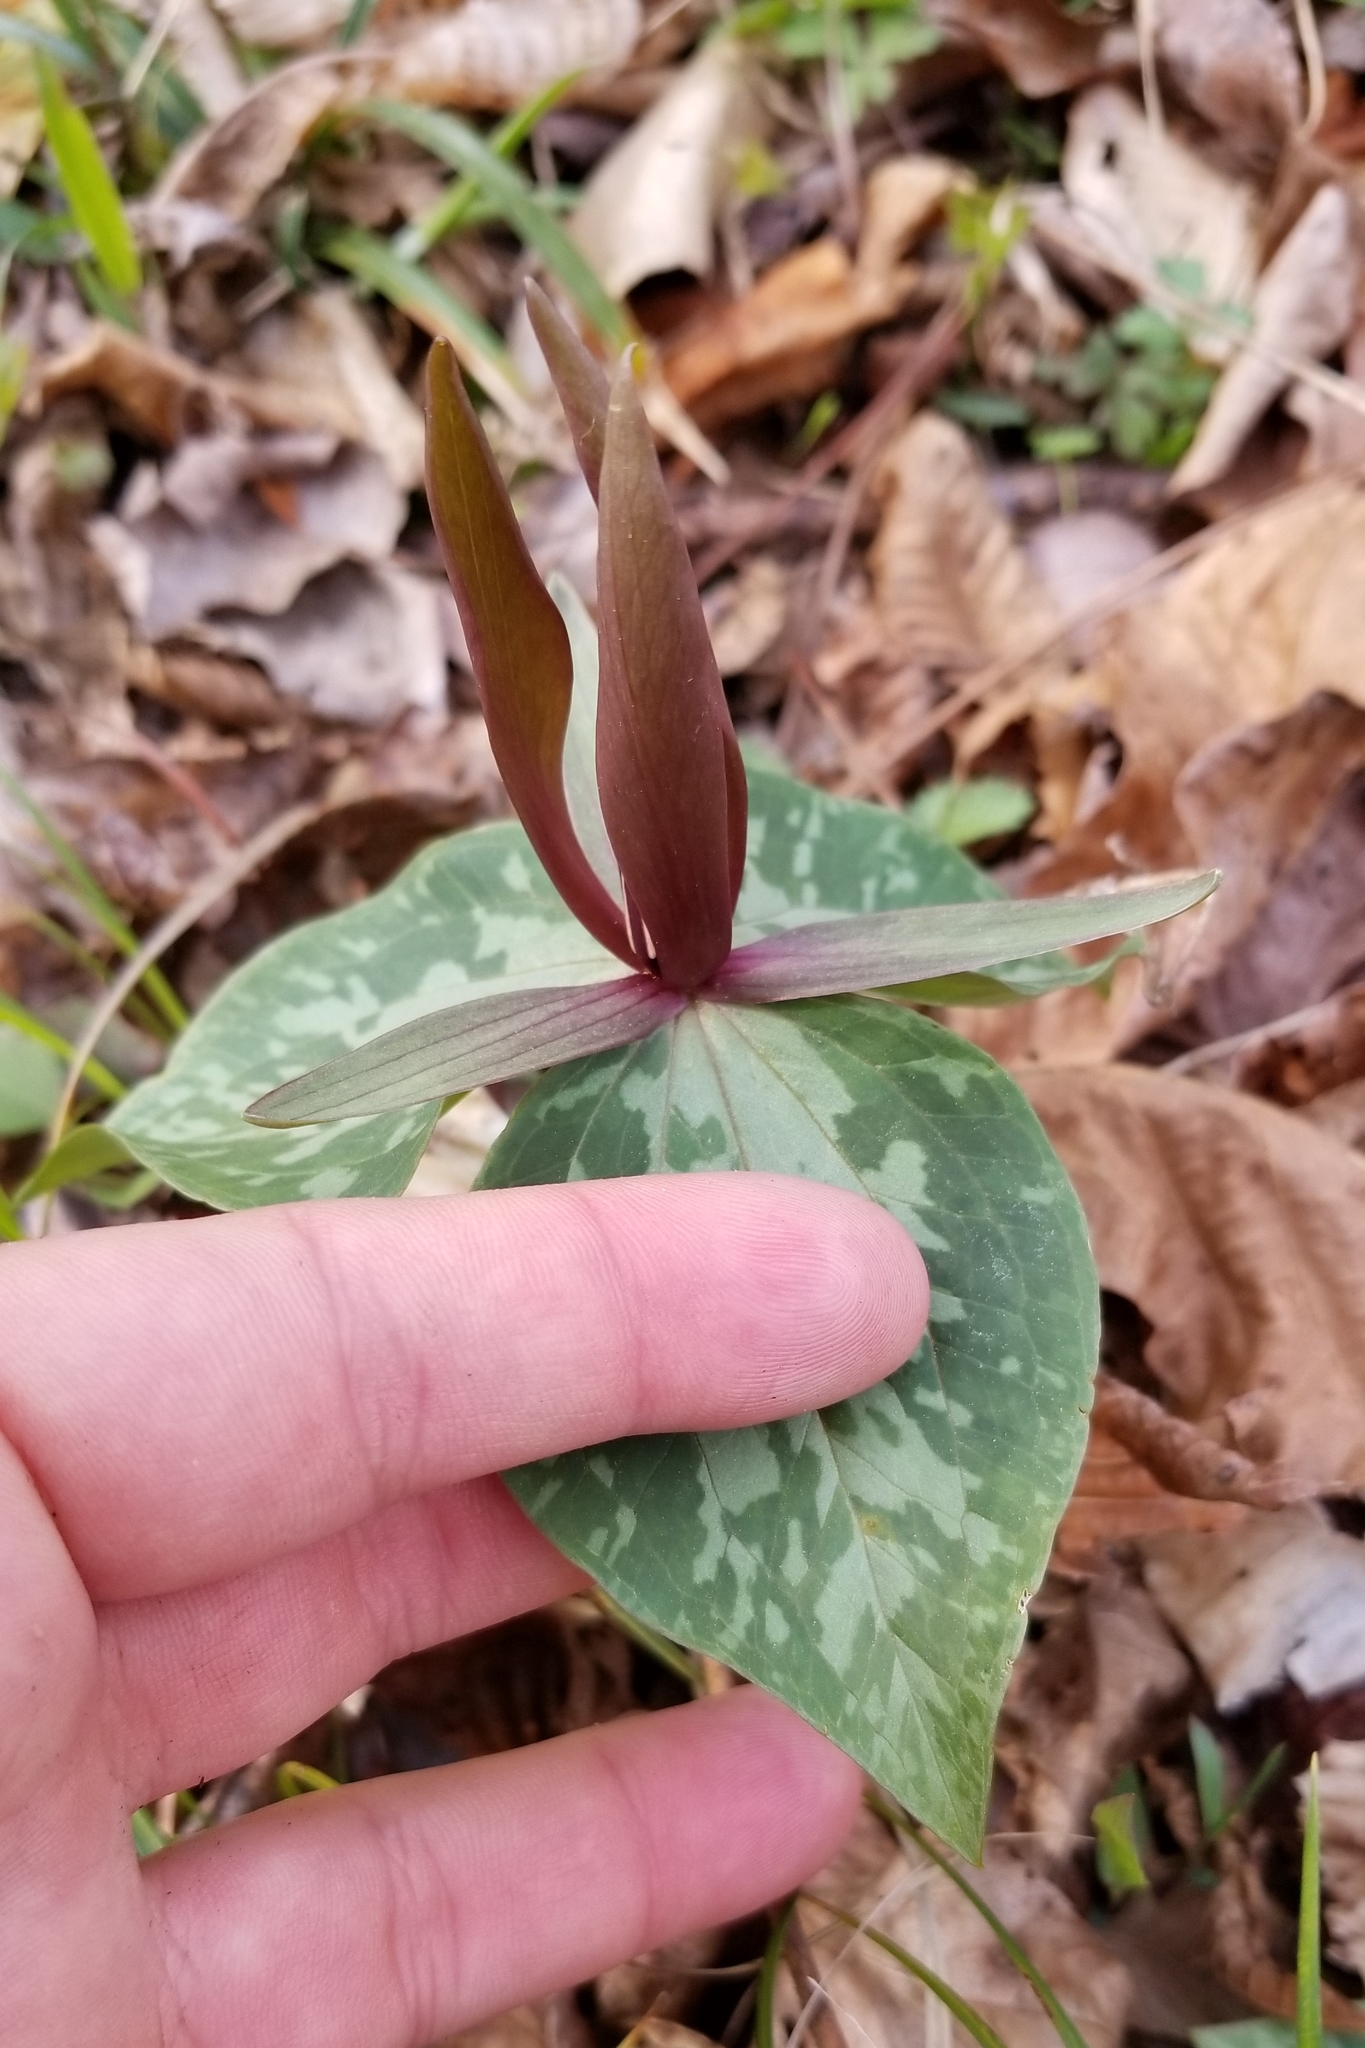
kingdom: Plantae
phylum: Tracheophyta
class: Liliopsida
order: Liliales
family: Melanthiaceae
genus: Trillium
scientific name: Trillium cuneatum
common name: Cuneate trillium
